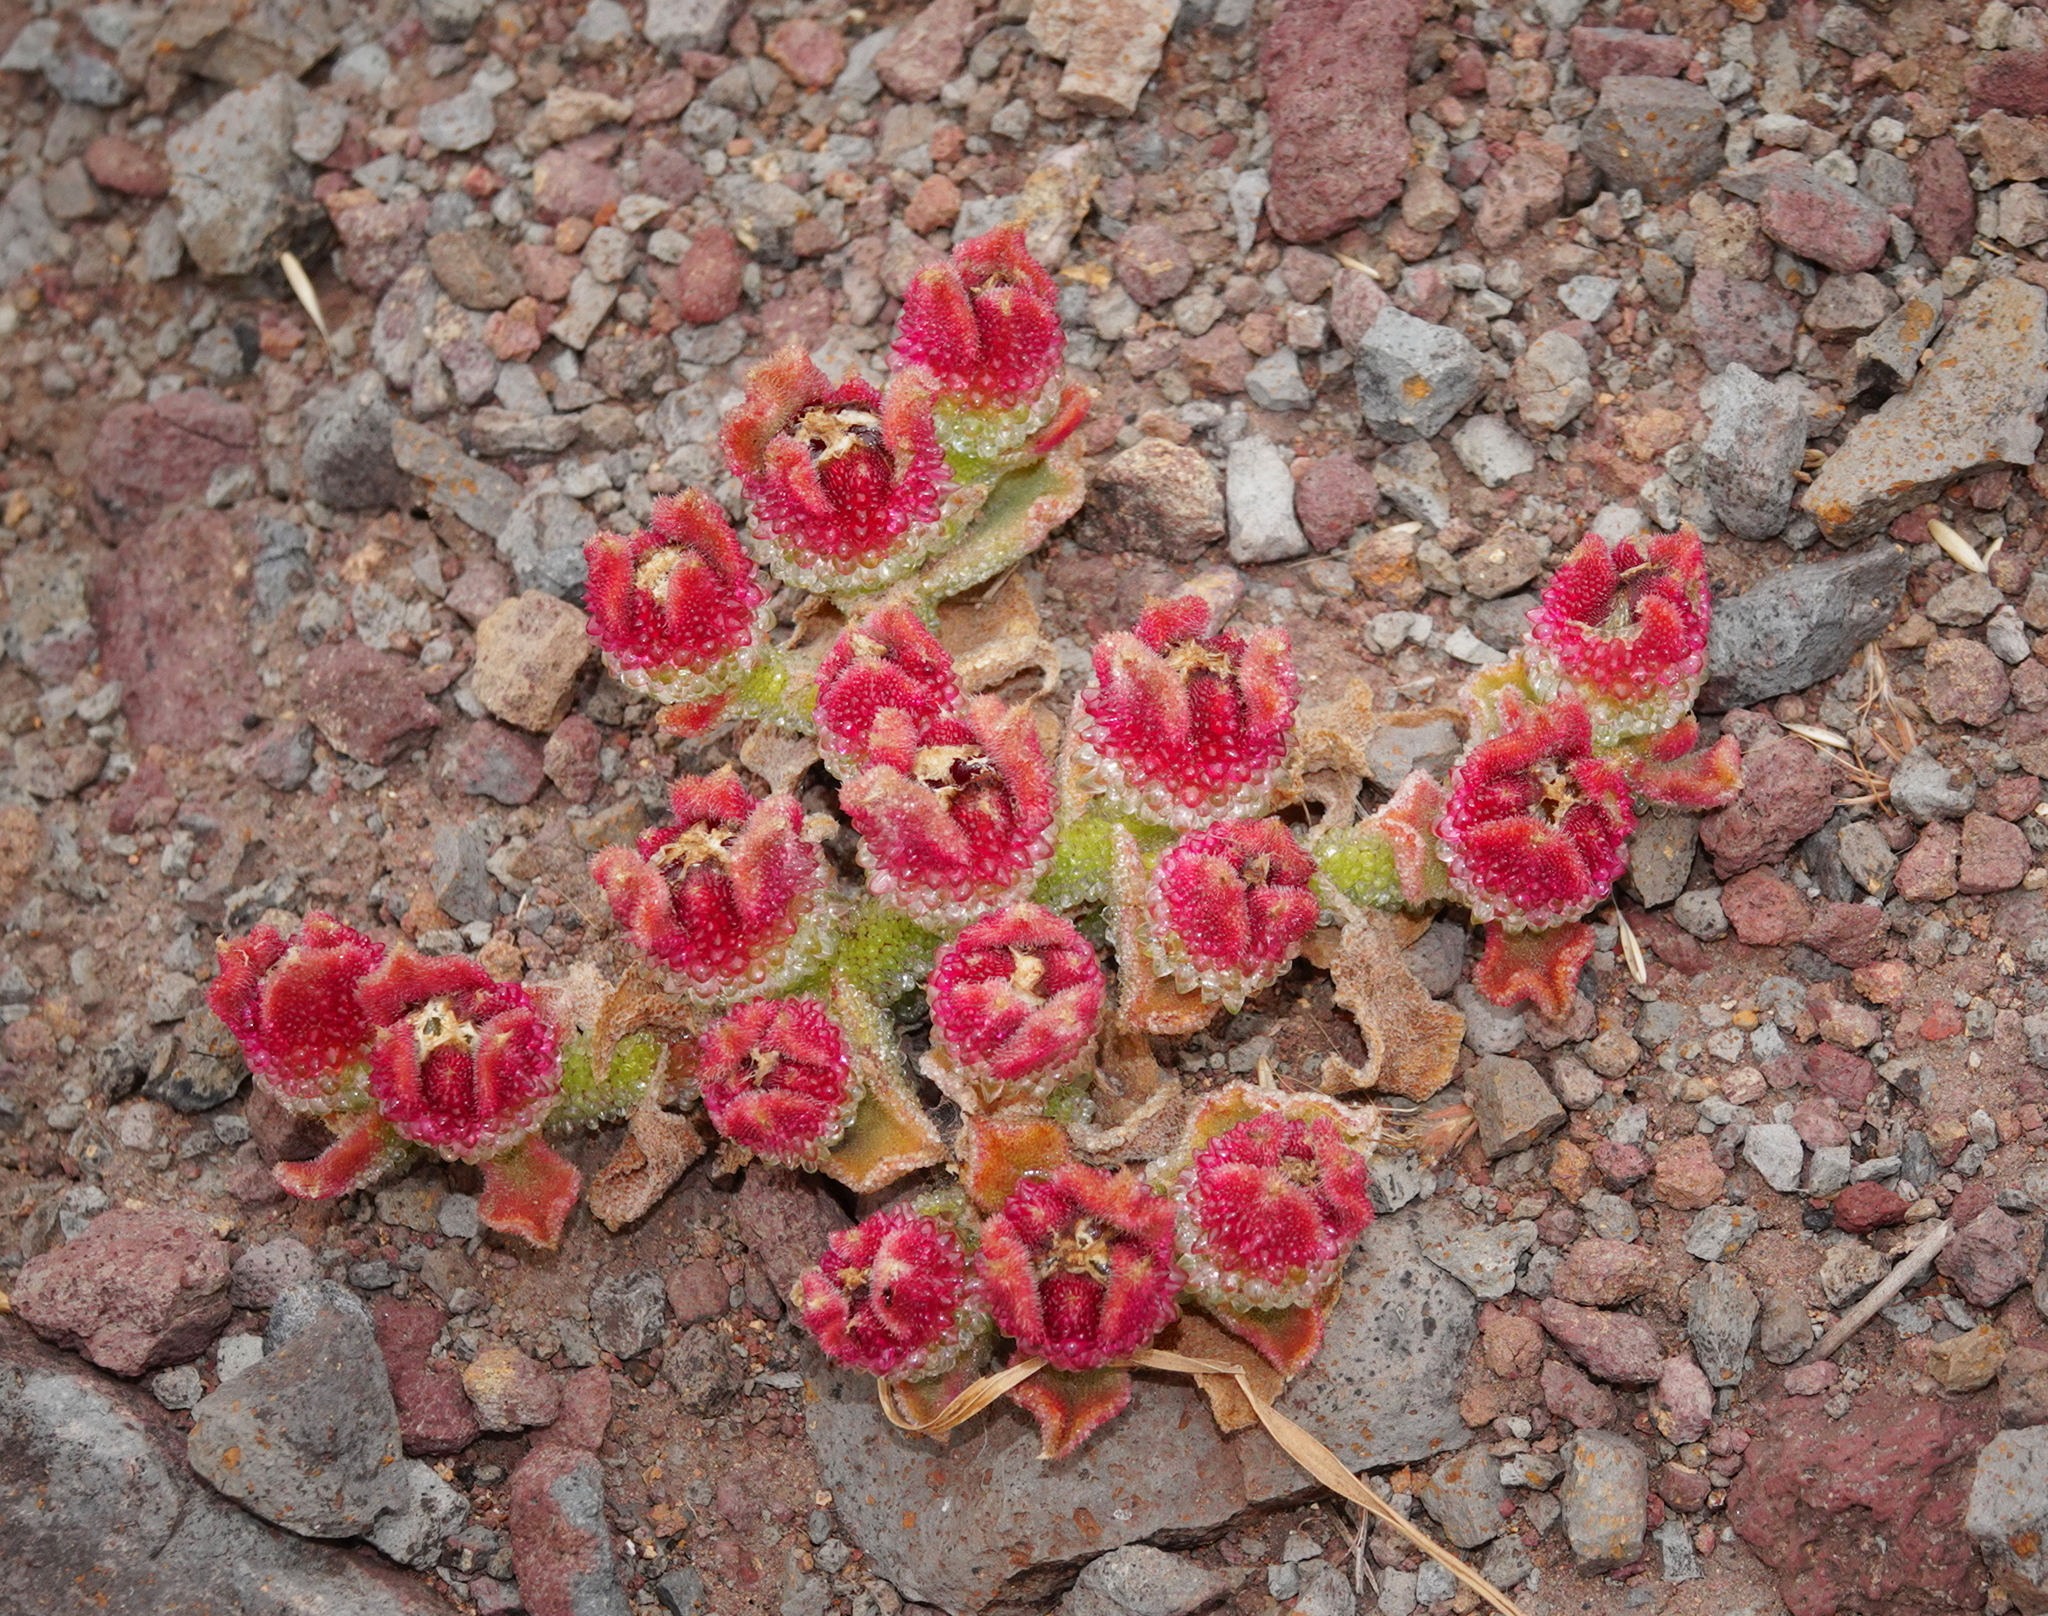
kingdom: Plantae
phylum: Tracheophyta
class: Magnoliopsida
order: Caryophyllales
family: Aizoaceae
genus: Mesembryanthemum
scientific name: Mesembryanthemum crystallinum
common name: Common iceplant
